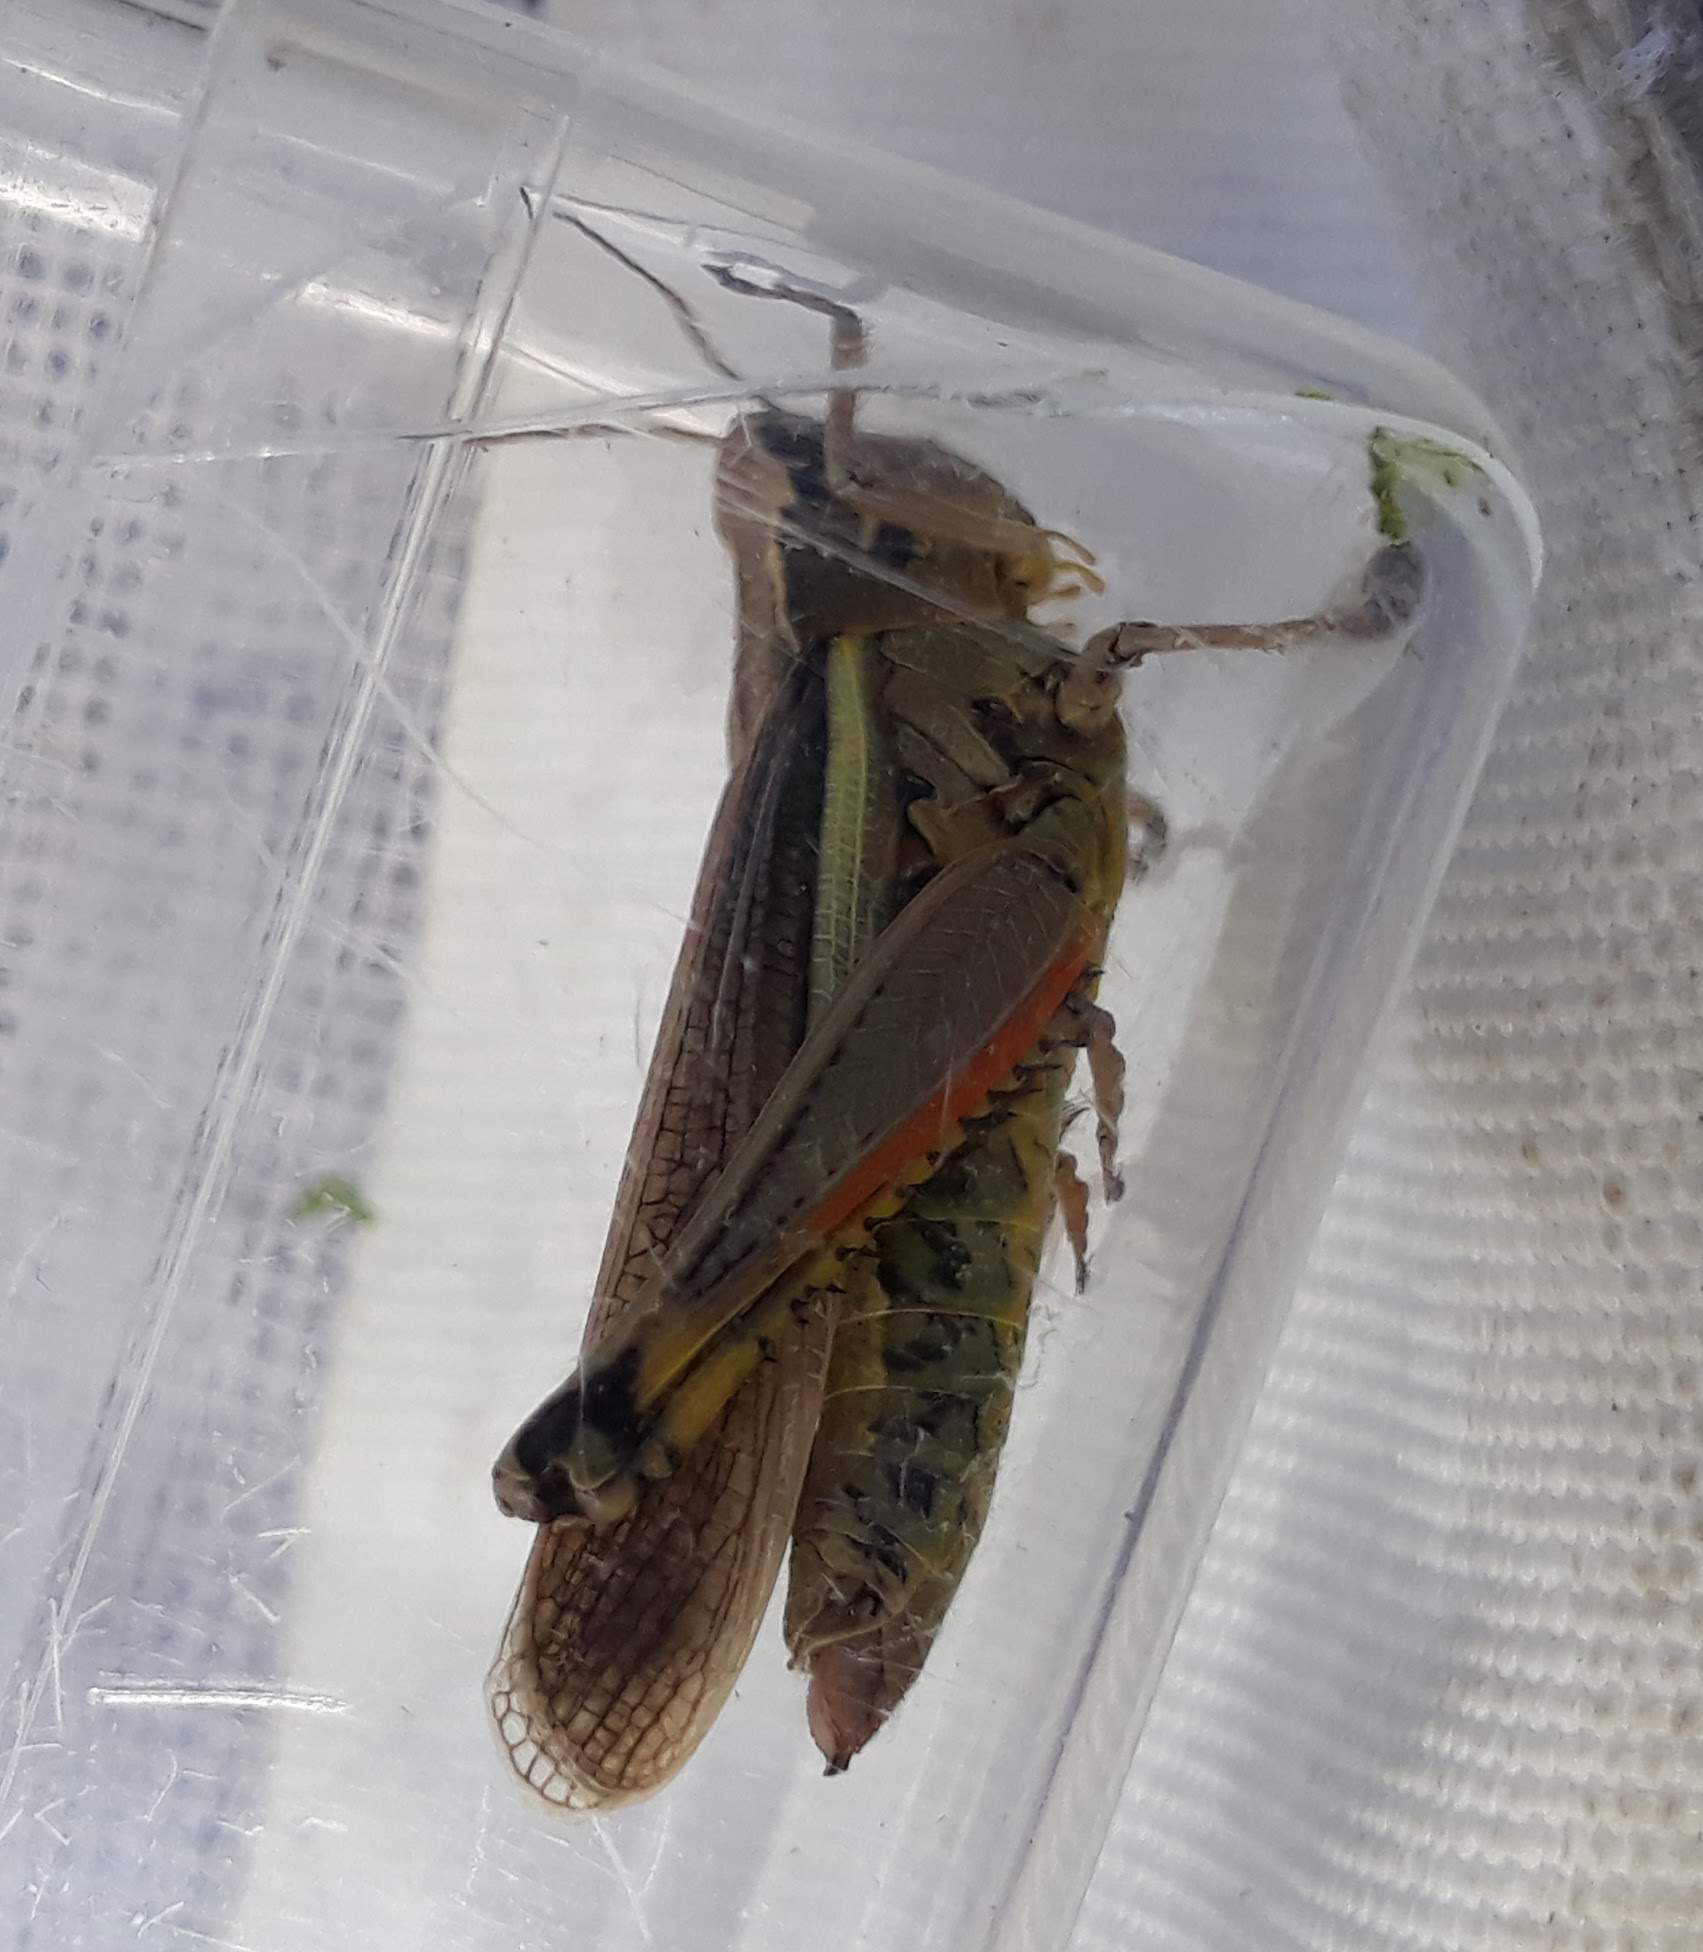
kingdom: Animalia
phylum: Arthropoda
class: Insecta
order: Orthoptera
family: Acrididae
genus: Stethophyma
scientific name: Stethophyma grossum
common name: Large marsh grasshopper
